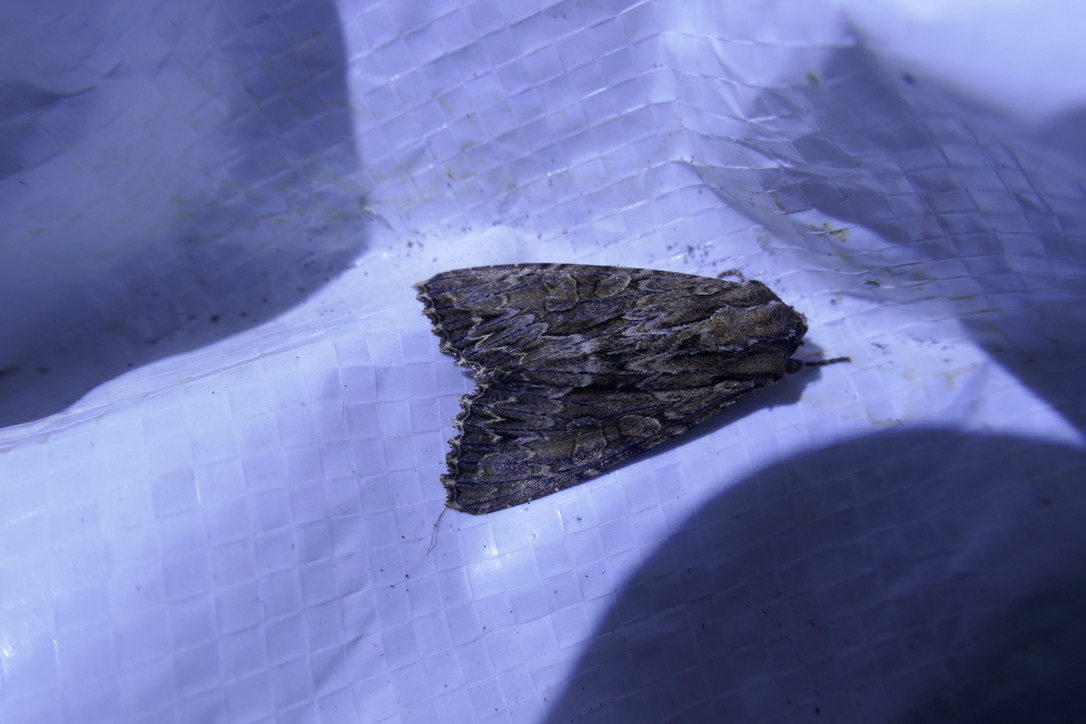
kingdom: Animalia
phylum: Arthropoda
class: Insecta
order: Lepidoptera
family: Noctuidae
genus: Apamea
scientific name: Apamea monoglypha
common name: Dark arches
